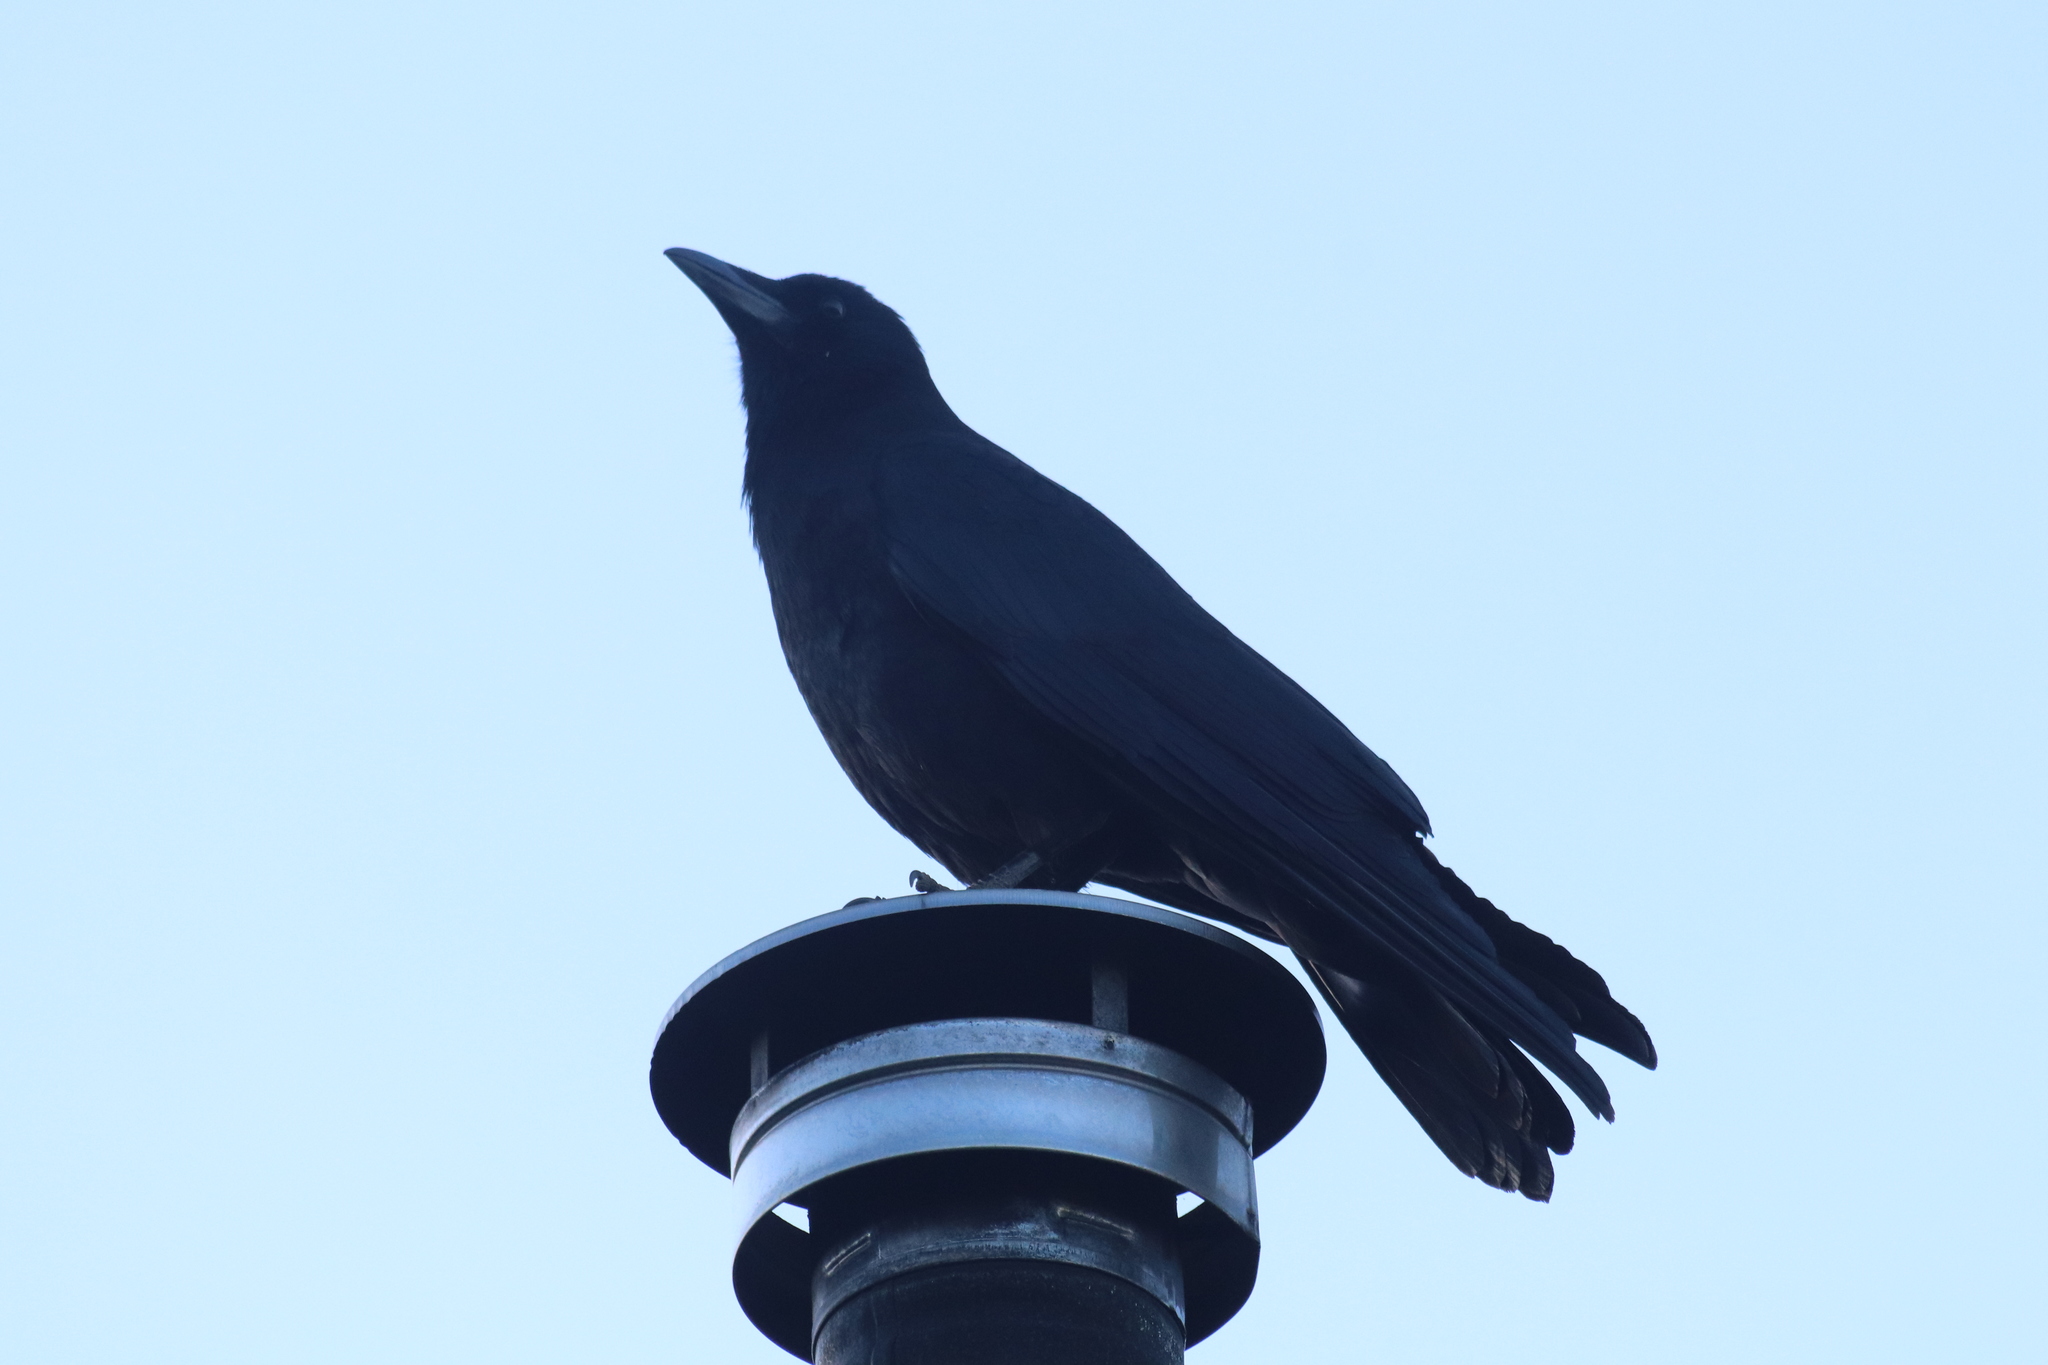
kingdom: Animalia
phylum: Chordata
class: Aves
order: Passeriformes
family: Corvidae
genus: Corvus
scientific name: Corvus brachyrhynchos
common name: American crow
